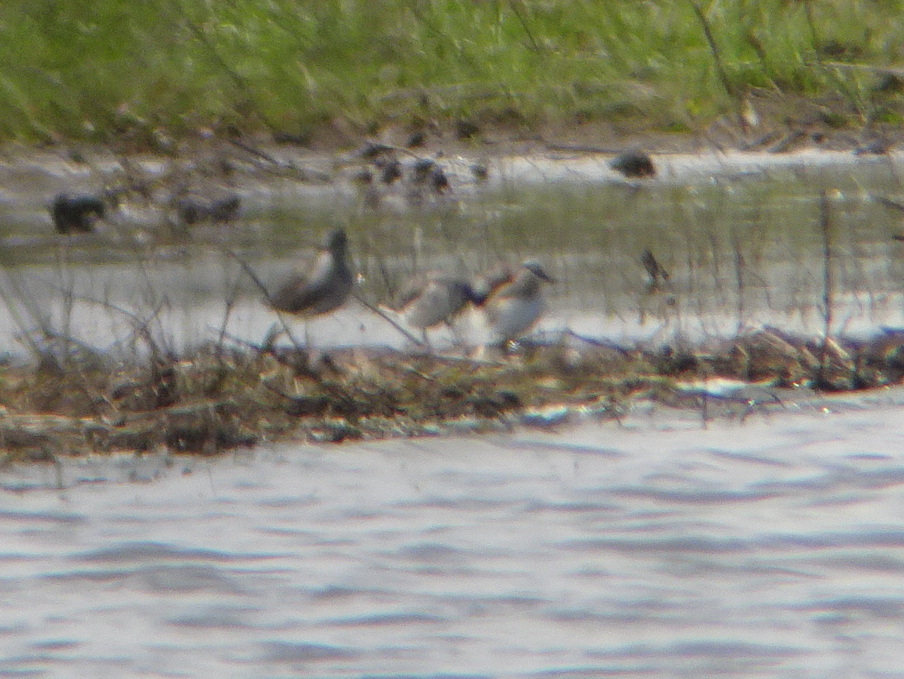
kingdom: Animalia
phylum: Chordata
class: Aves
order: Charadriiformes
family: Scolopacidae
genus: Phalaropus
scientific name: Phalaropus tricolor
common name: Wilson's phalarope
